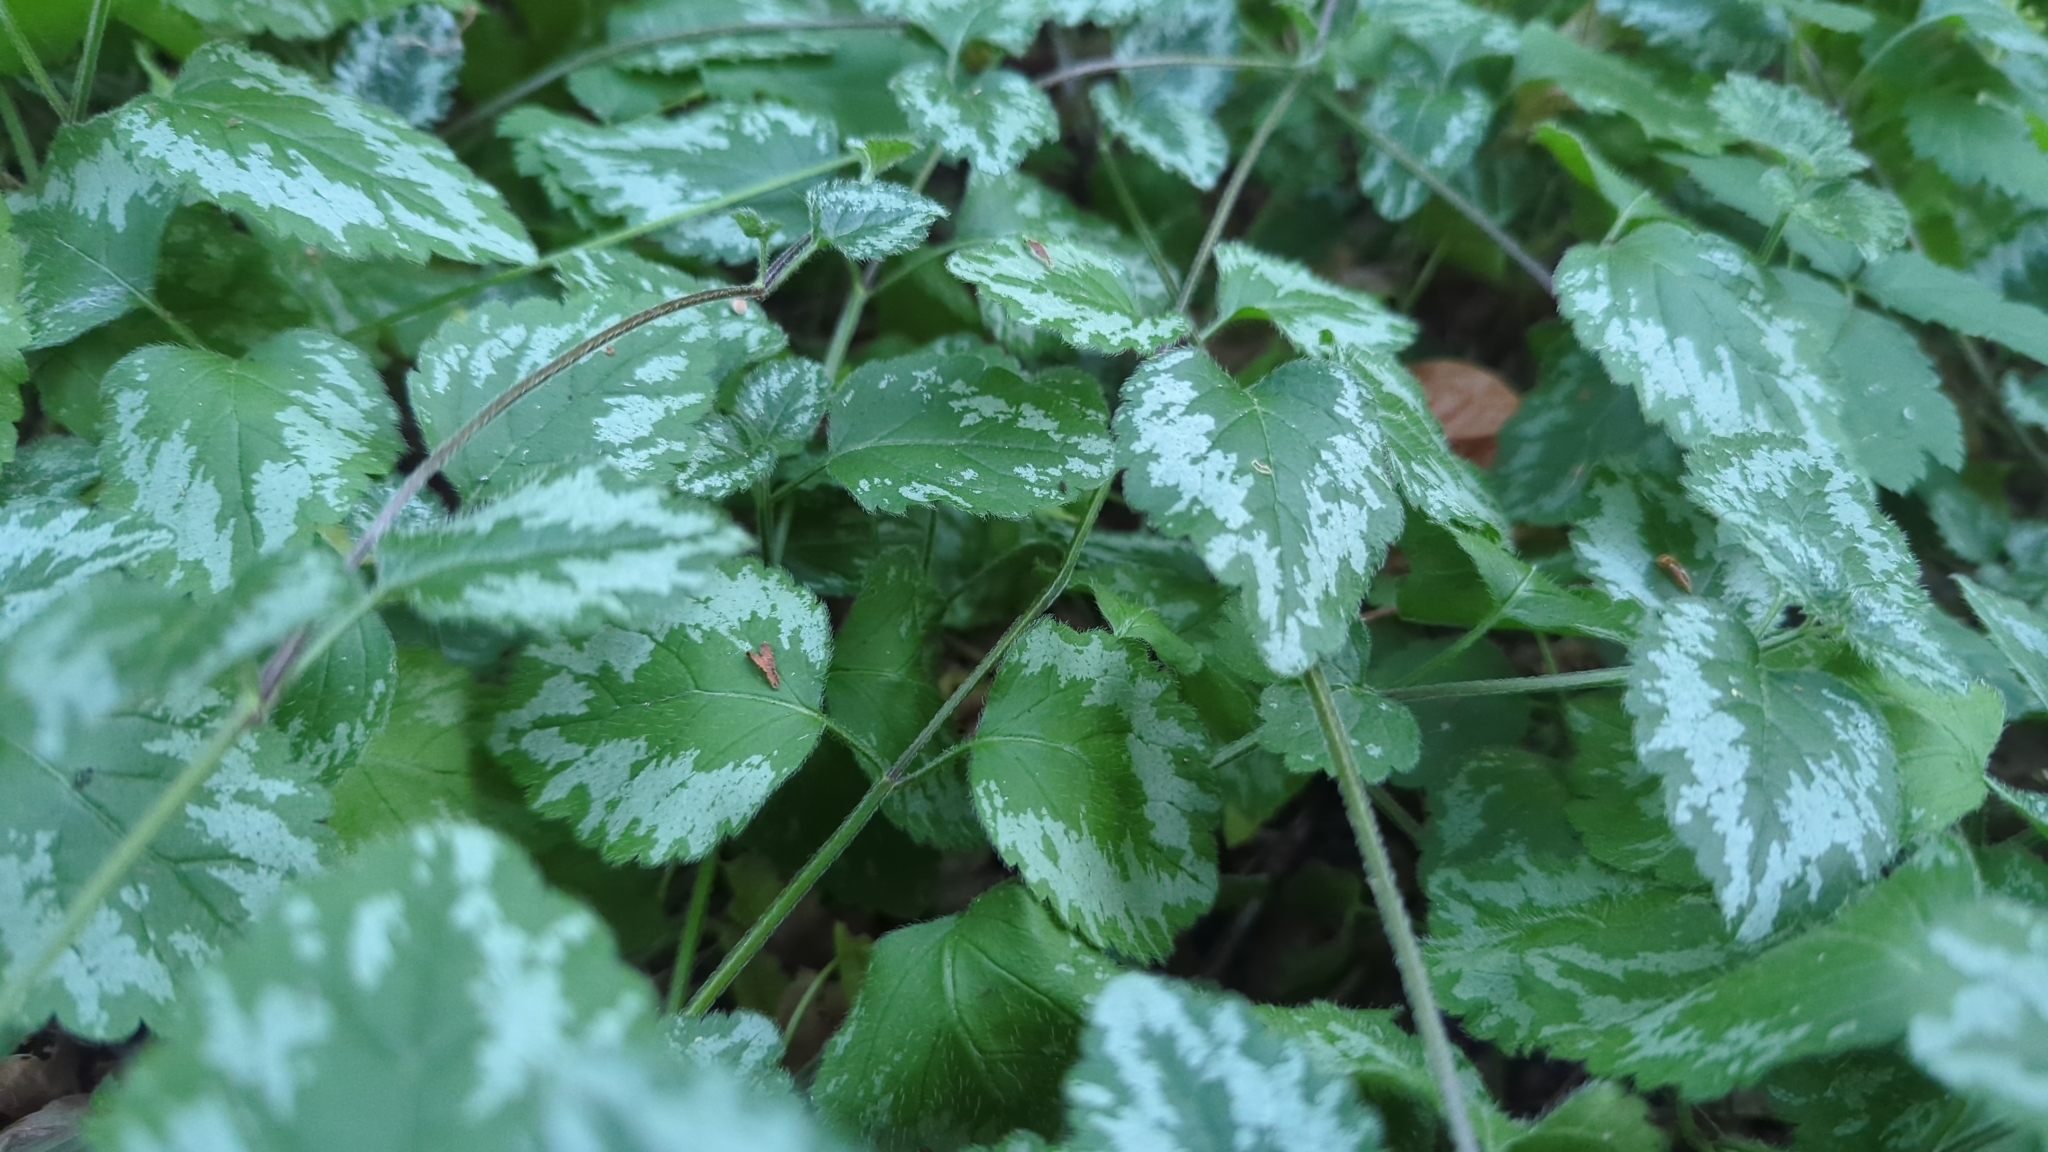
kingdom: Plantae
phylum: Tracheophyta
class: Magnoliopsida
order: Lamiales
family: Lamiaceae
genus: Lamium
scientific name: Lamium galeobdolon
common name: Yellow archangel
